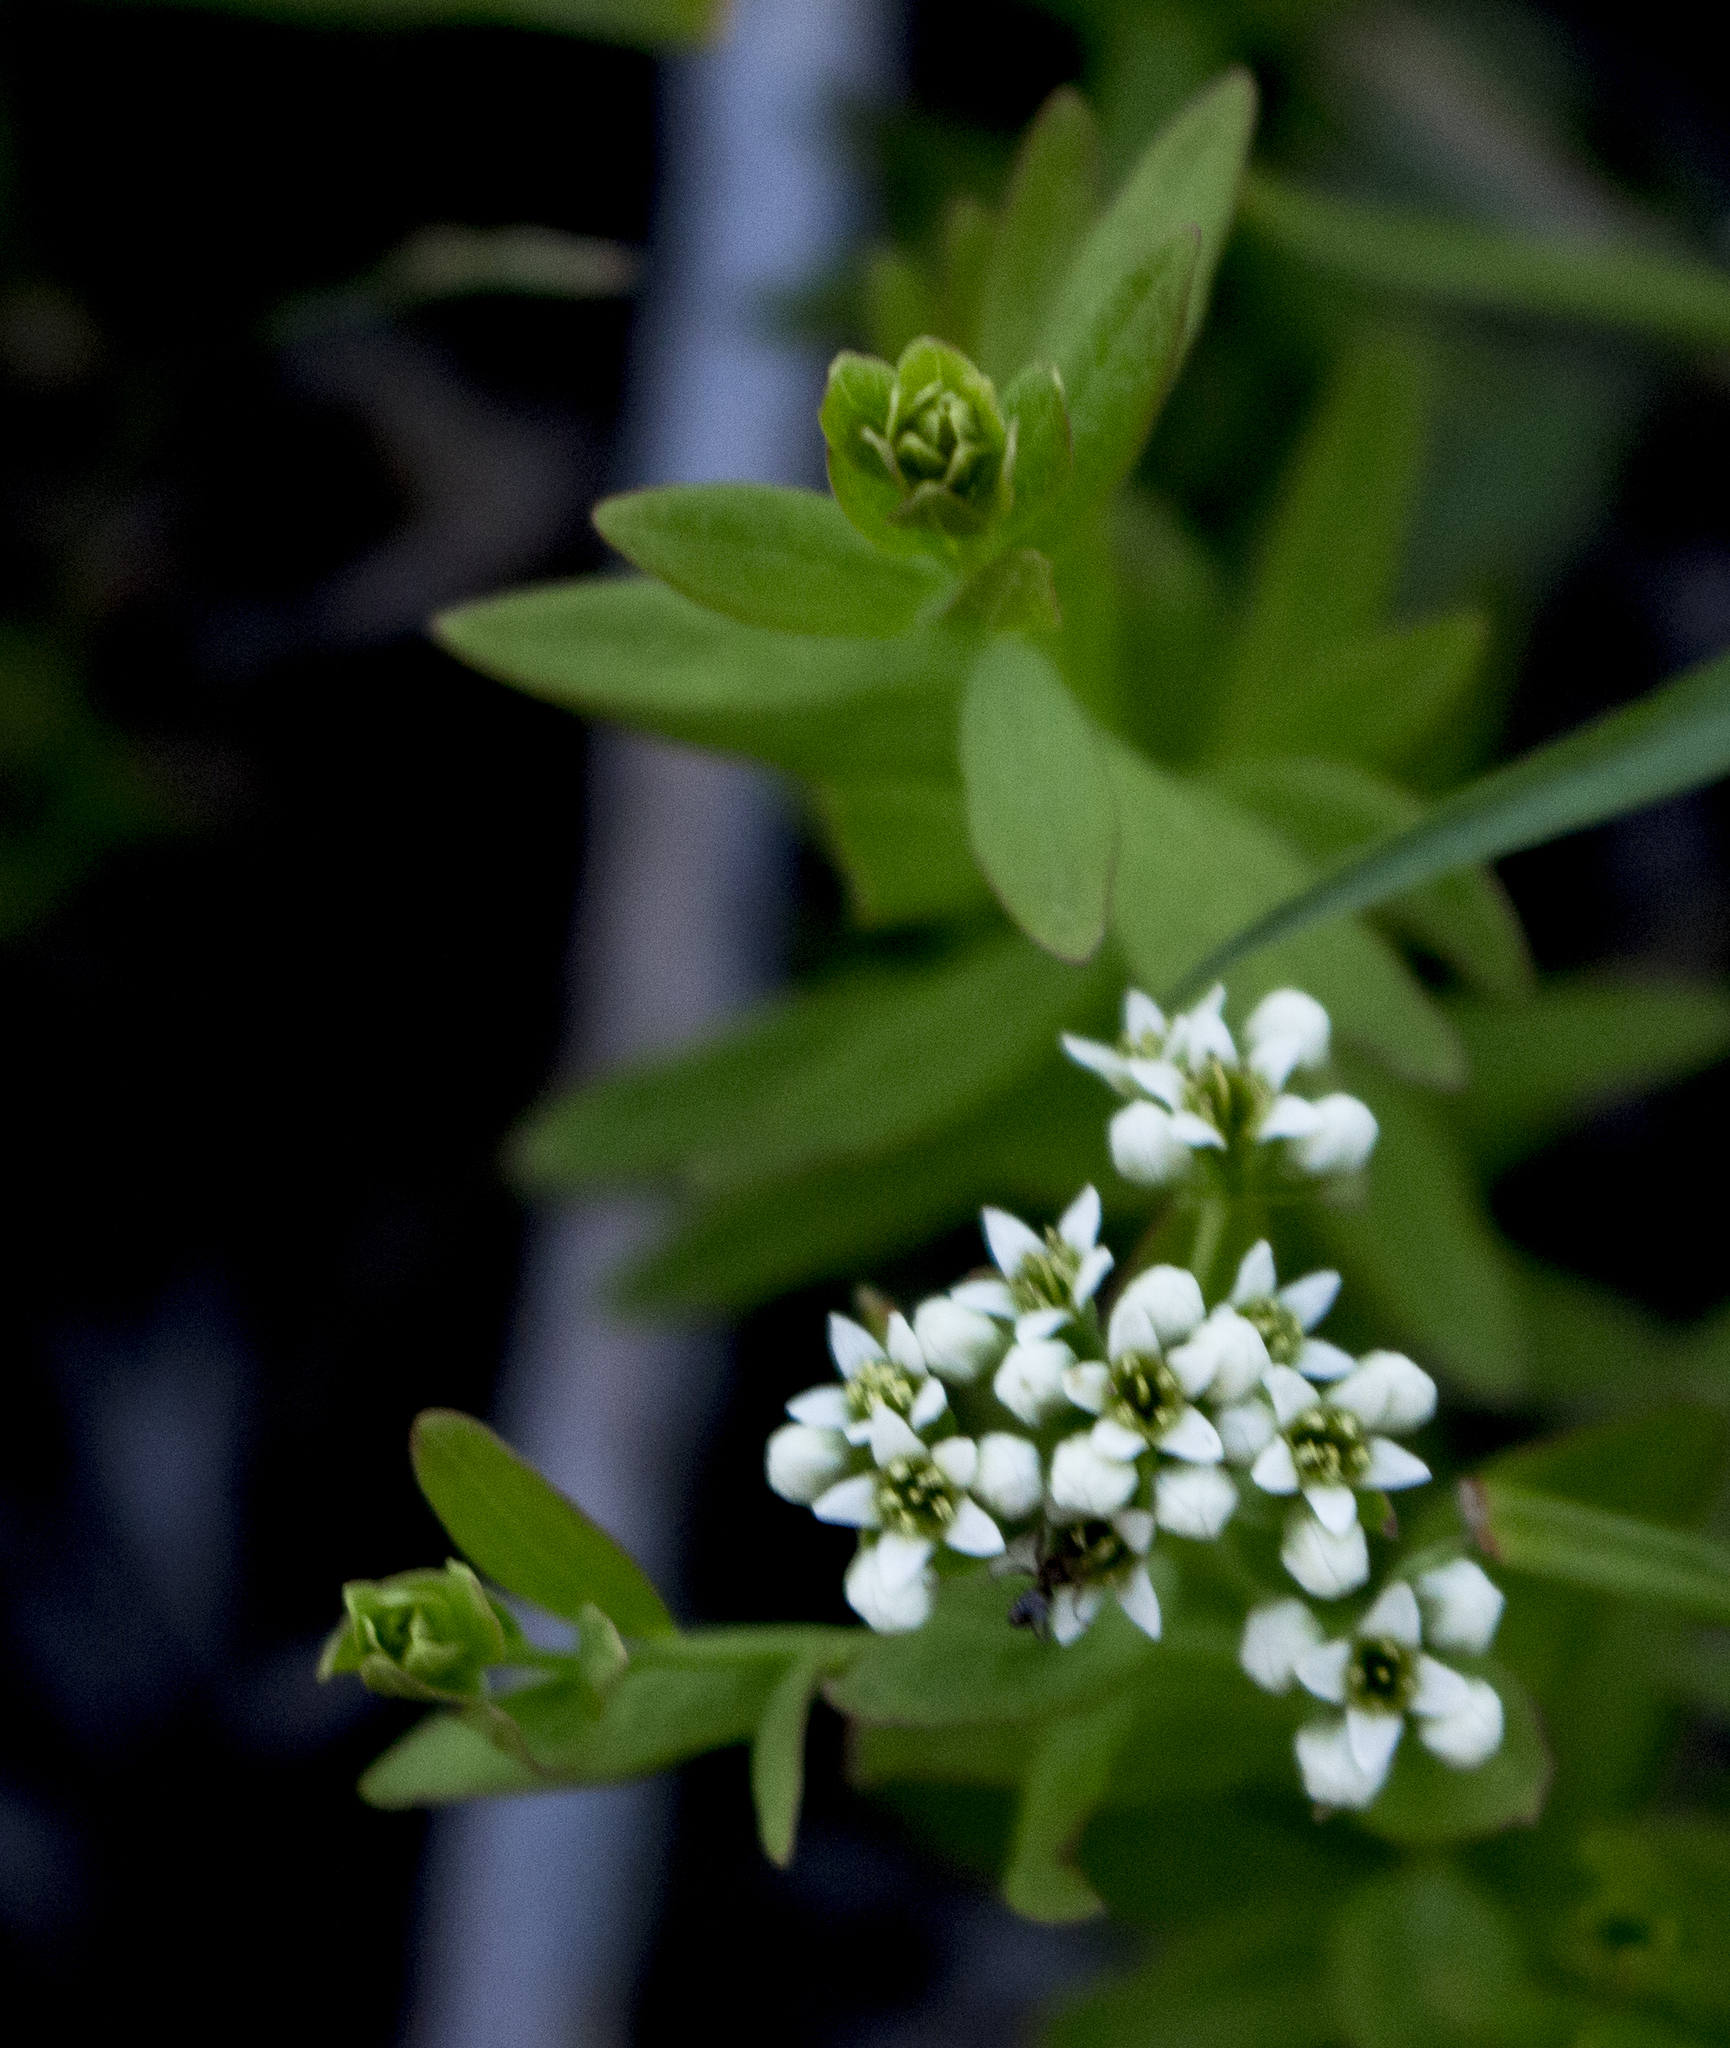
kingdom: Plantae
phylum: Tracheophyta
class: Magnoliopsida
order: Santalales
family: Comandraceae
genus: Comandra
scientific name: Comandra umbellata
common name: Bastard toadflax
